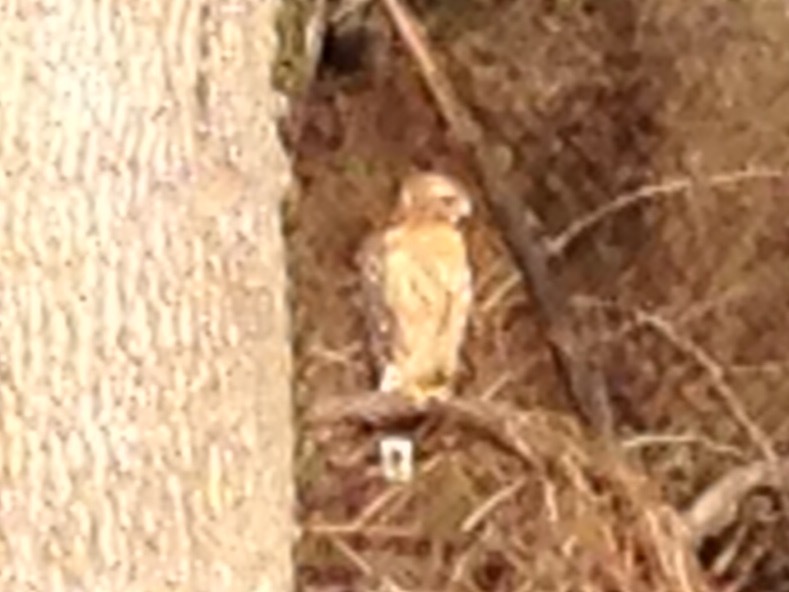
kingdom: Animalia
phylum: Chordata
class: Aves
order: Accipitriformes
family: Accipitridae
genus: Buteo
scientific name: Buteo lineatus
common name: Red-shouldered hawk
